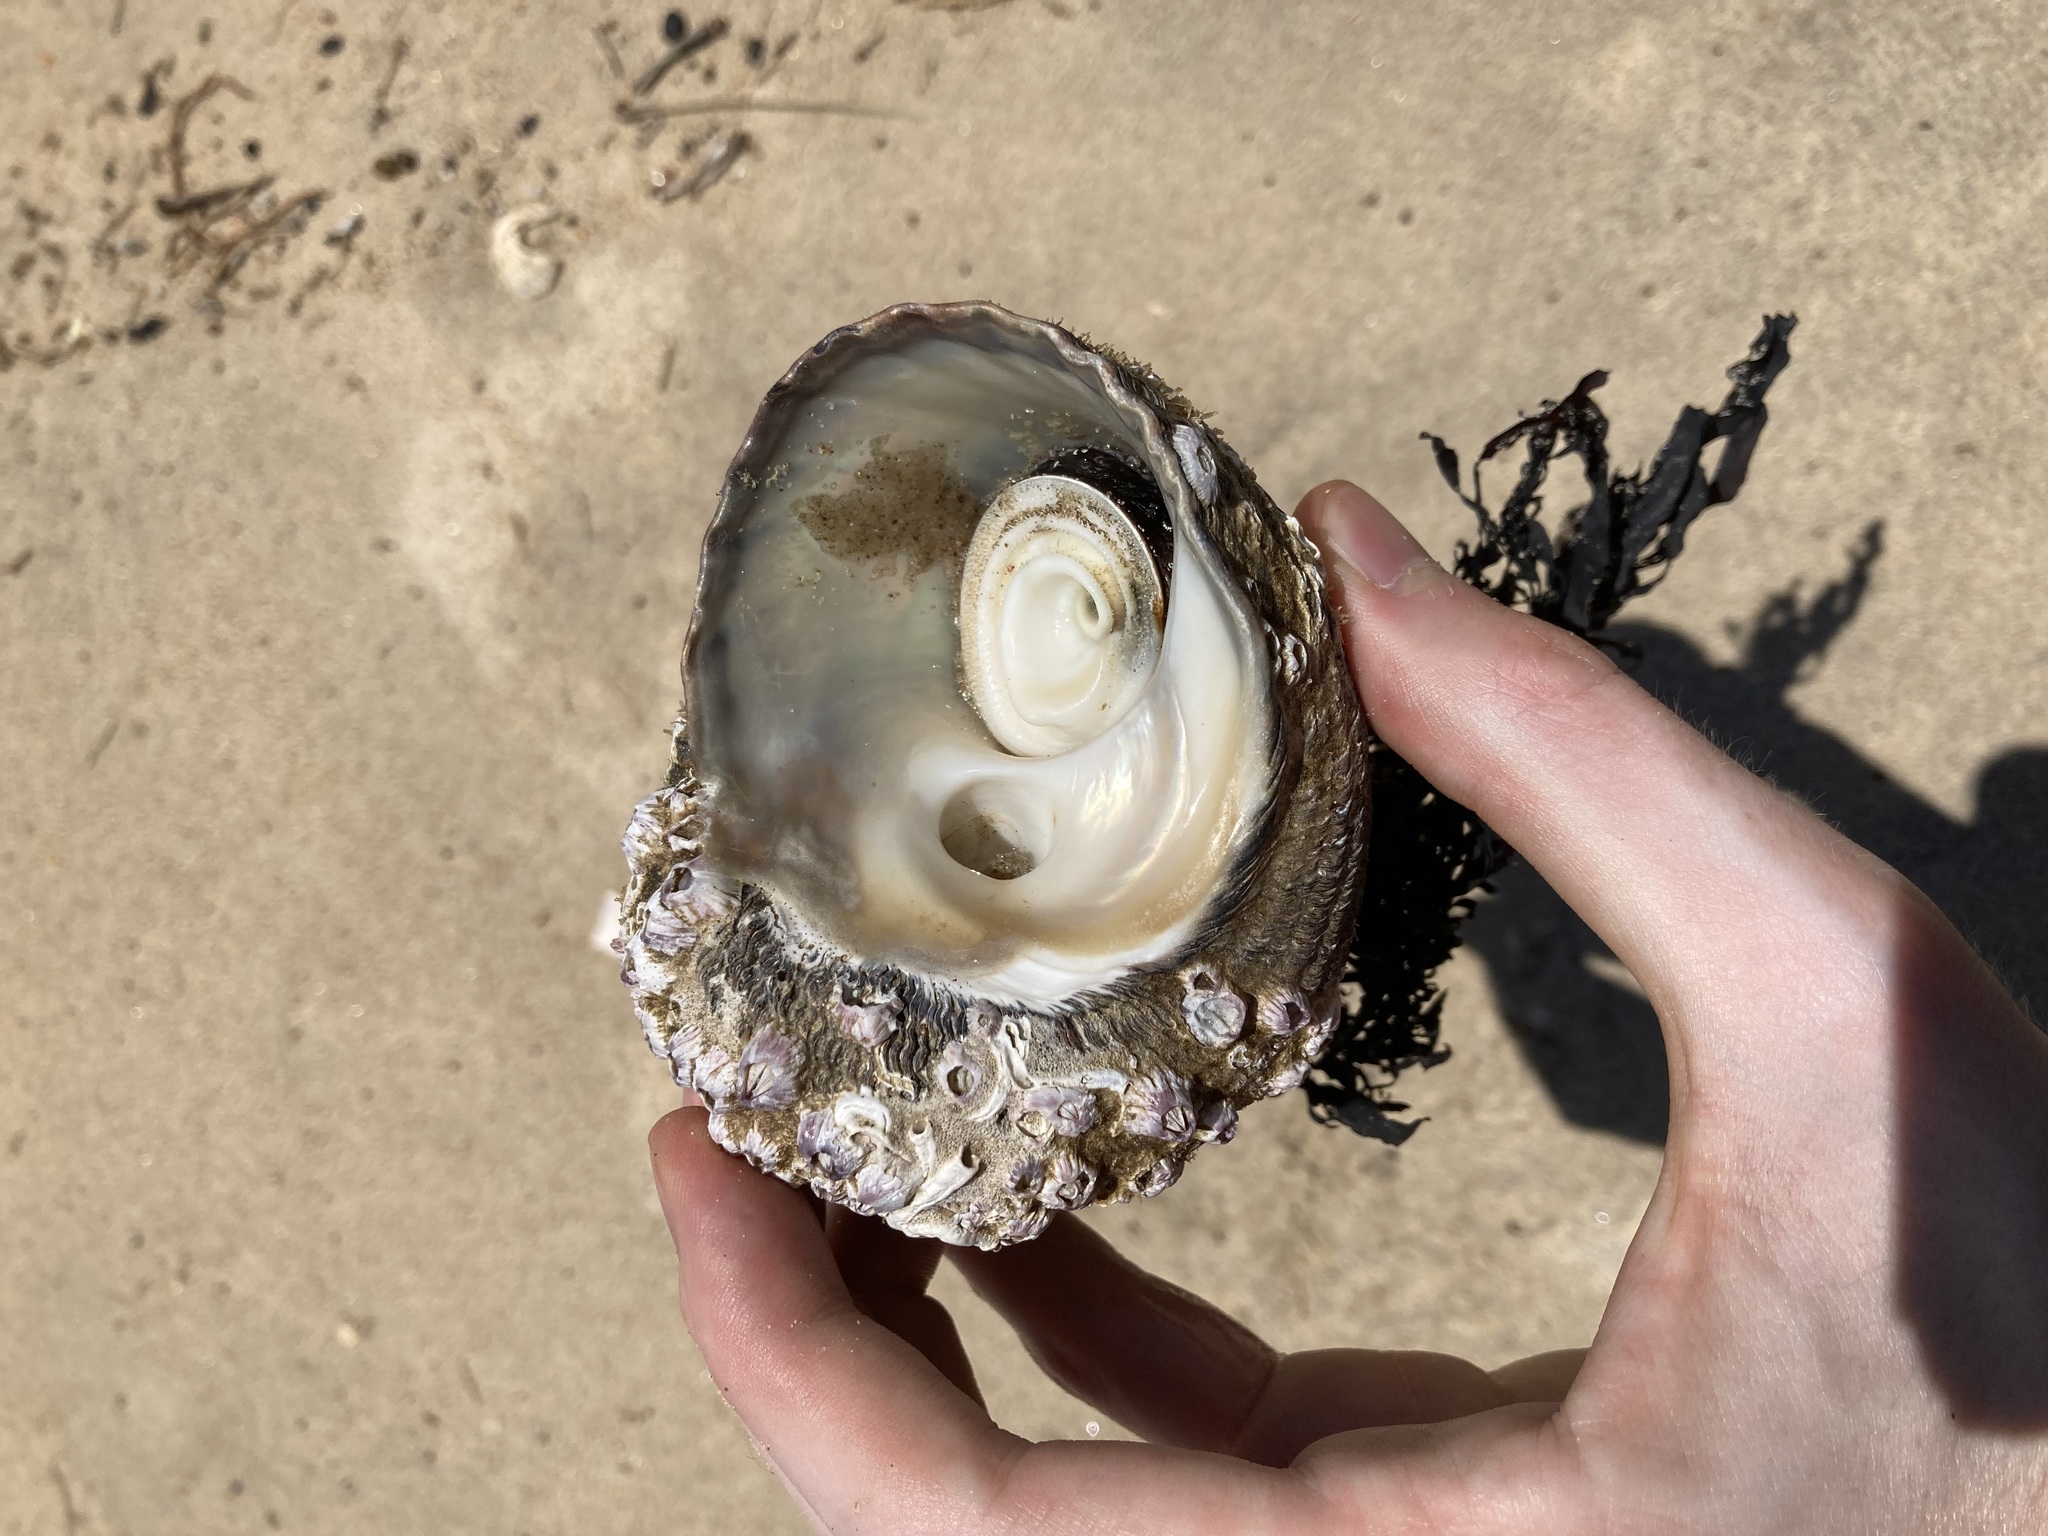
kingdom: Animalia
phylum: Mollusca
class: Gastropoda
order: Trochida
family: Turbinidae
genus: Lunella
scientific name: Lunella torquata
